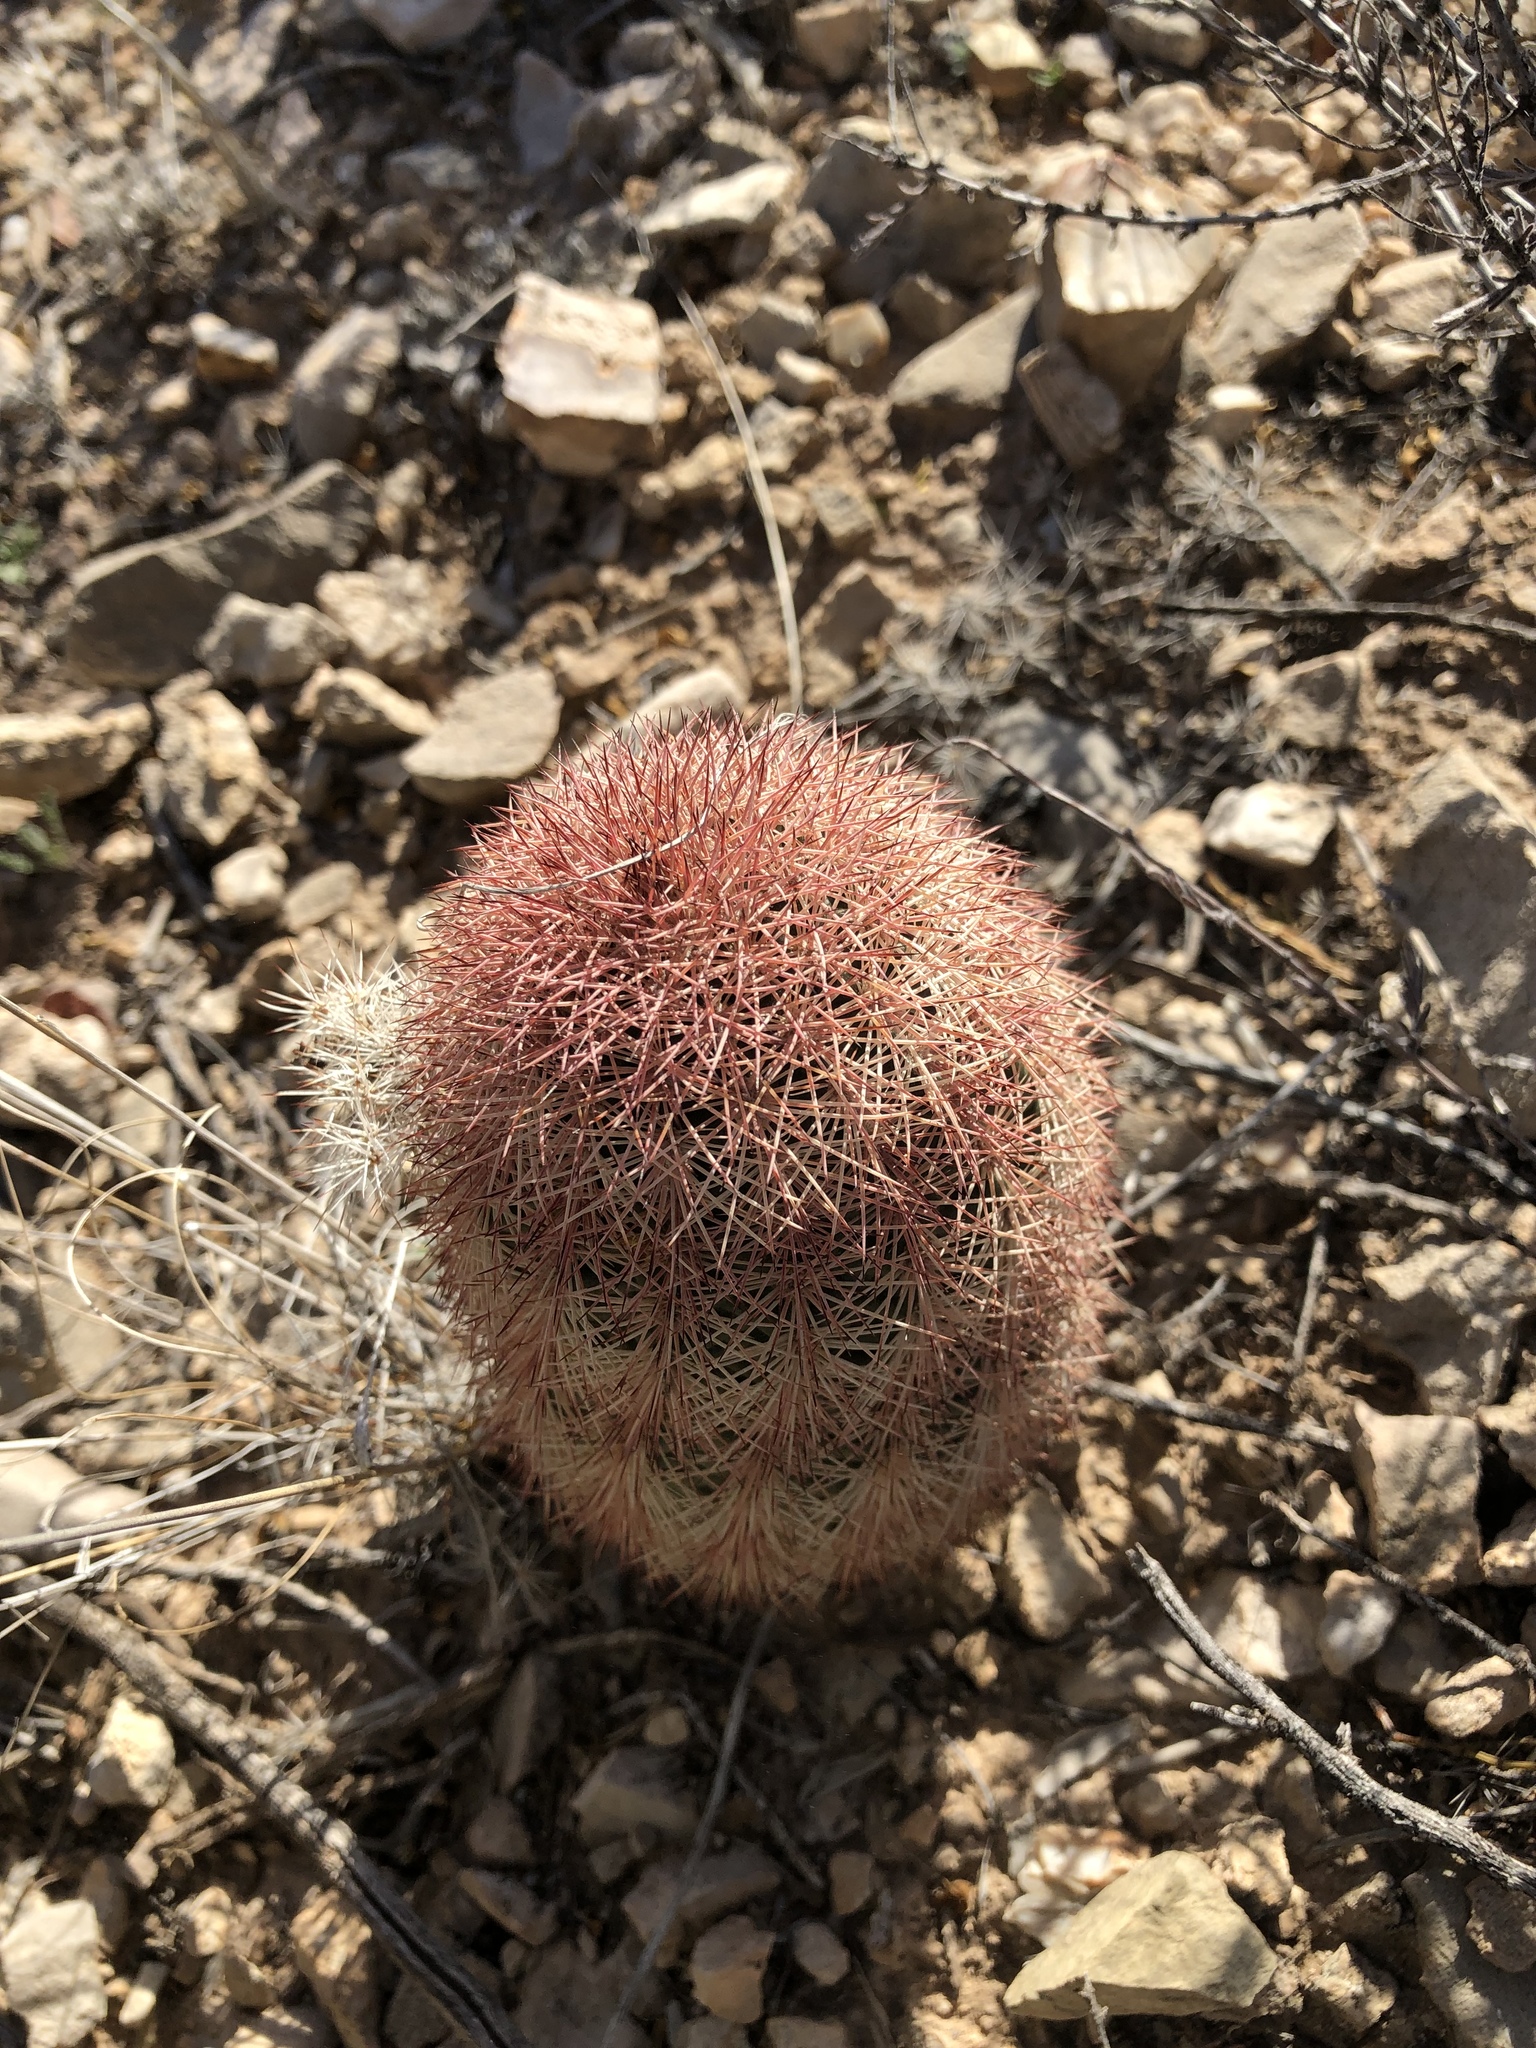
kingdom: Plantae
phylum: Tracheophyta
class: Magnoliopsida
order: Caryophyllales
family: Cactaceae
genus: Echinocereus
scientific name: Echinocereus dasyacanthus
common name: Spiny hedgehog cactus
